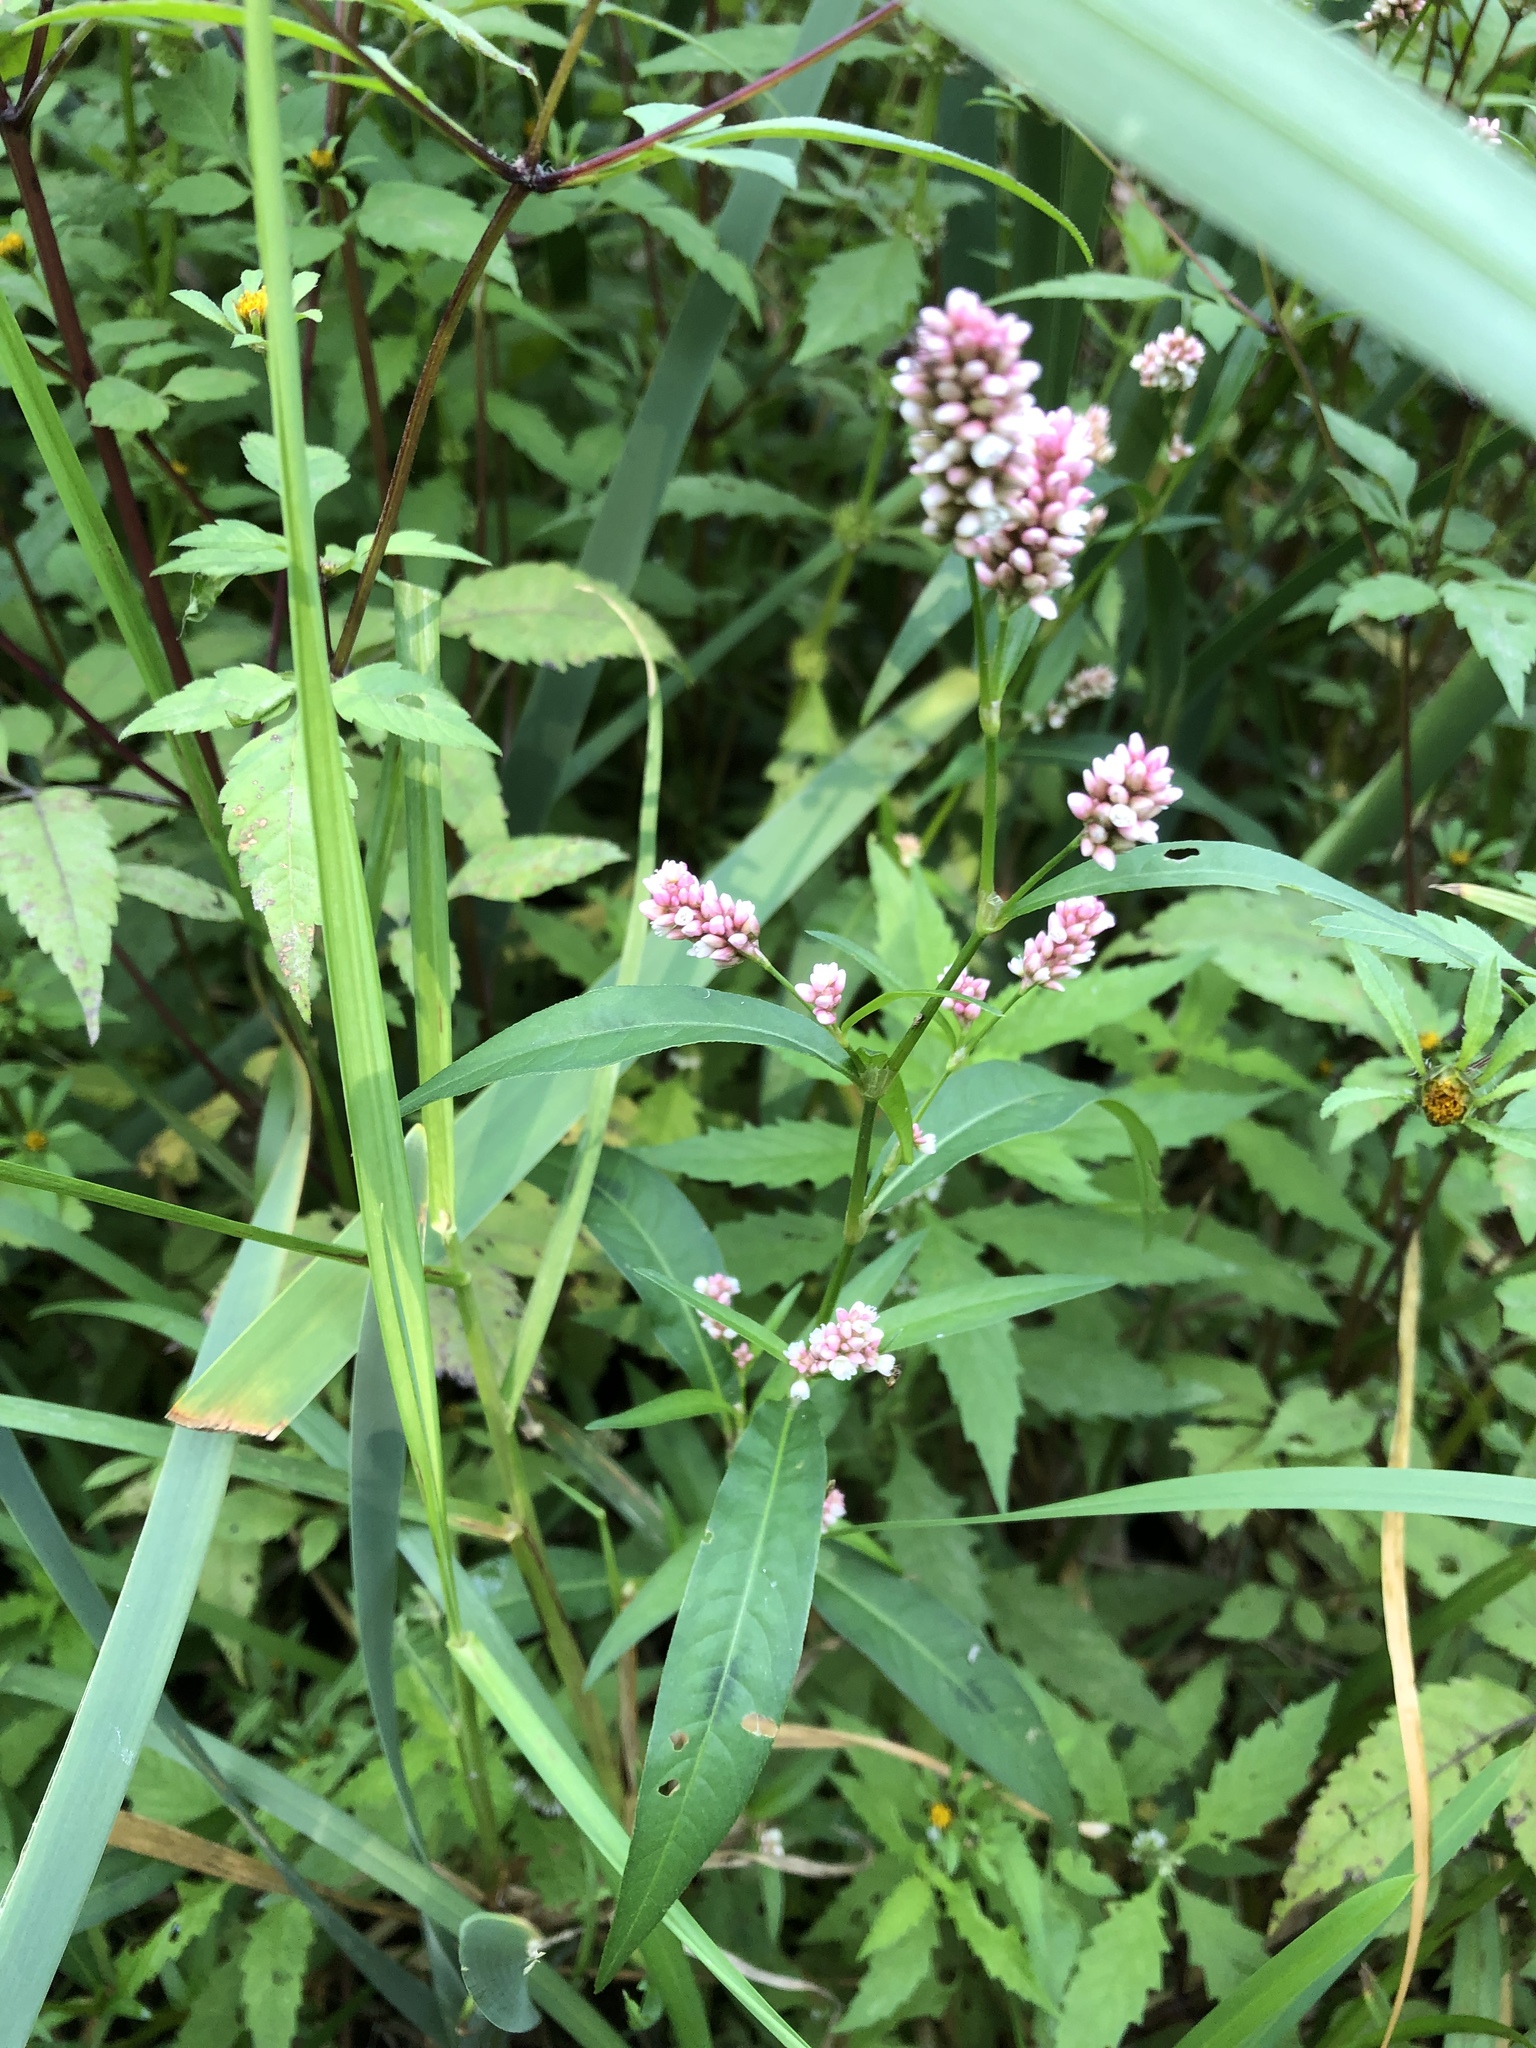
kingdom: Plantae
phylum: Tracheophyta
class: Magnoliopsida
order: Caryophyllales
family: Polygonaceae
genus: Persicaria
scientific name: Persicaria maculosa
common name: Redshank
